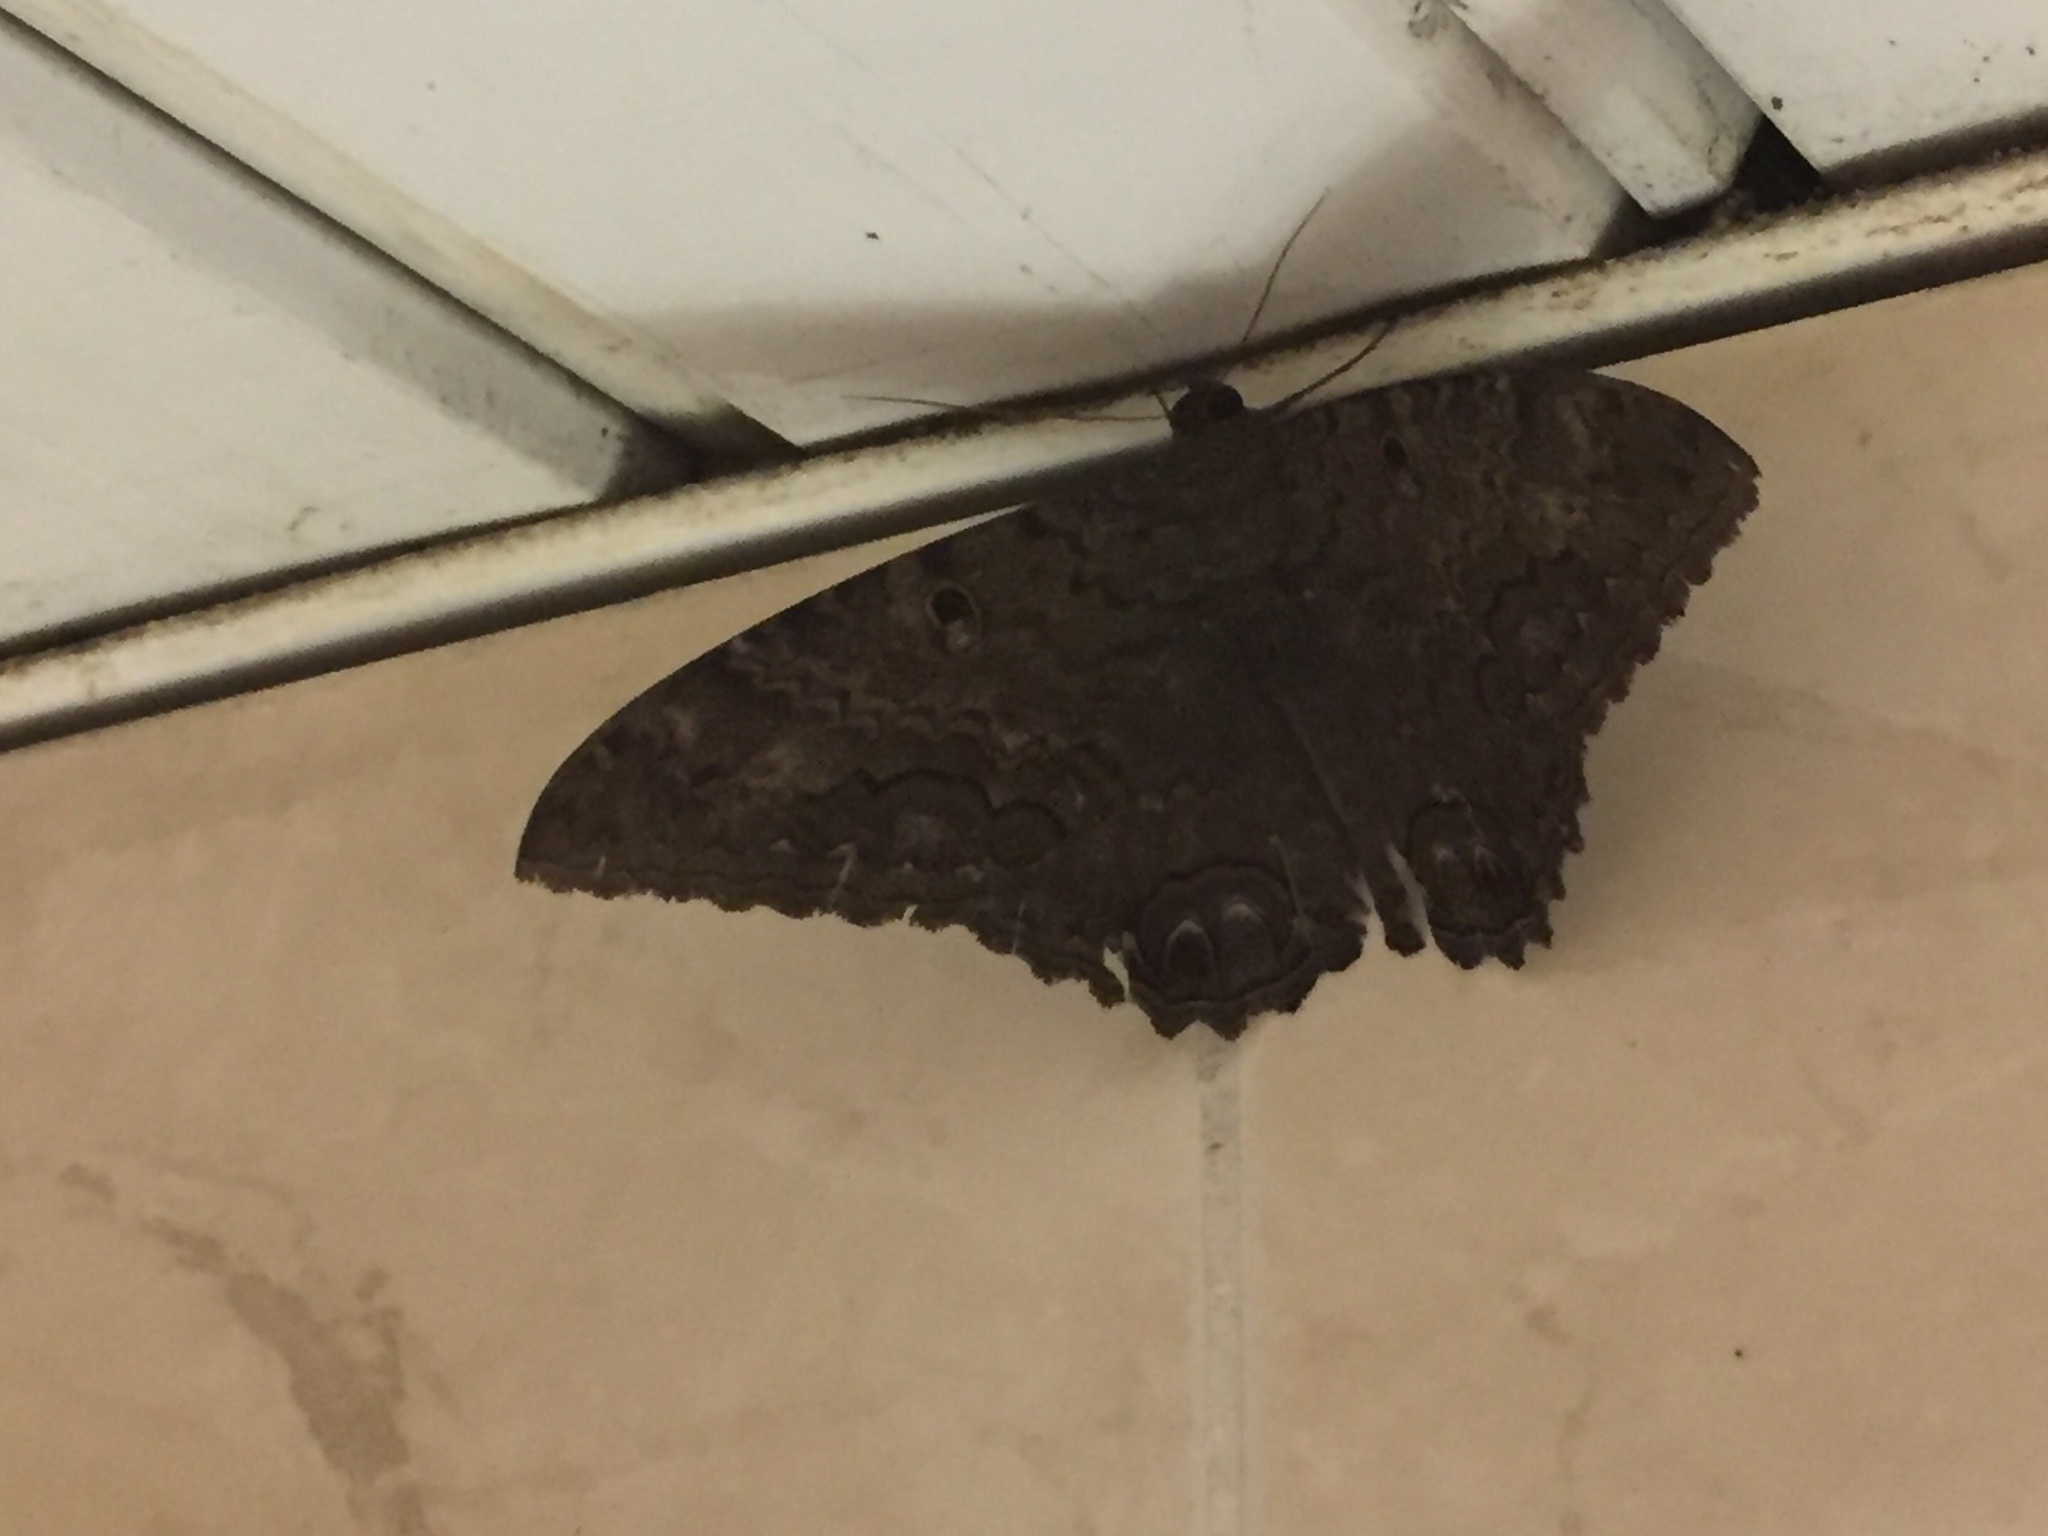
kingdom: Animalia
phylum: Arthropoda
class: Insecta
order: Lepidoptera
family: Erebidae
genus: Ascalapha
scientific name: Ascalapha odorata
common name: Black witch
